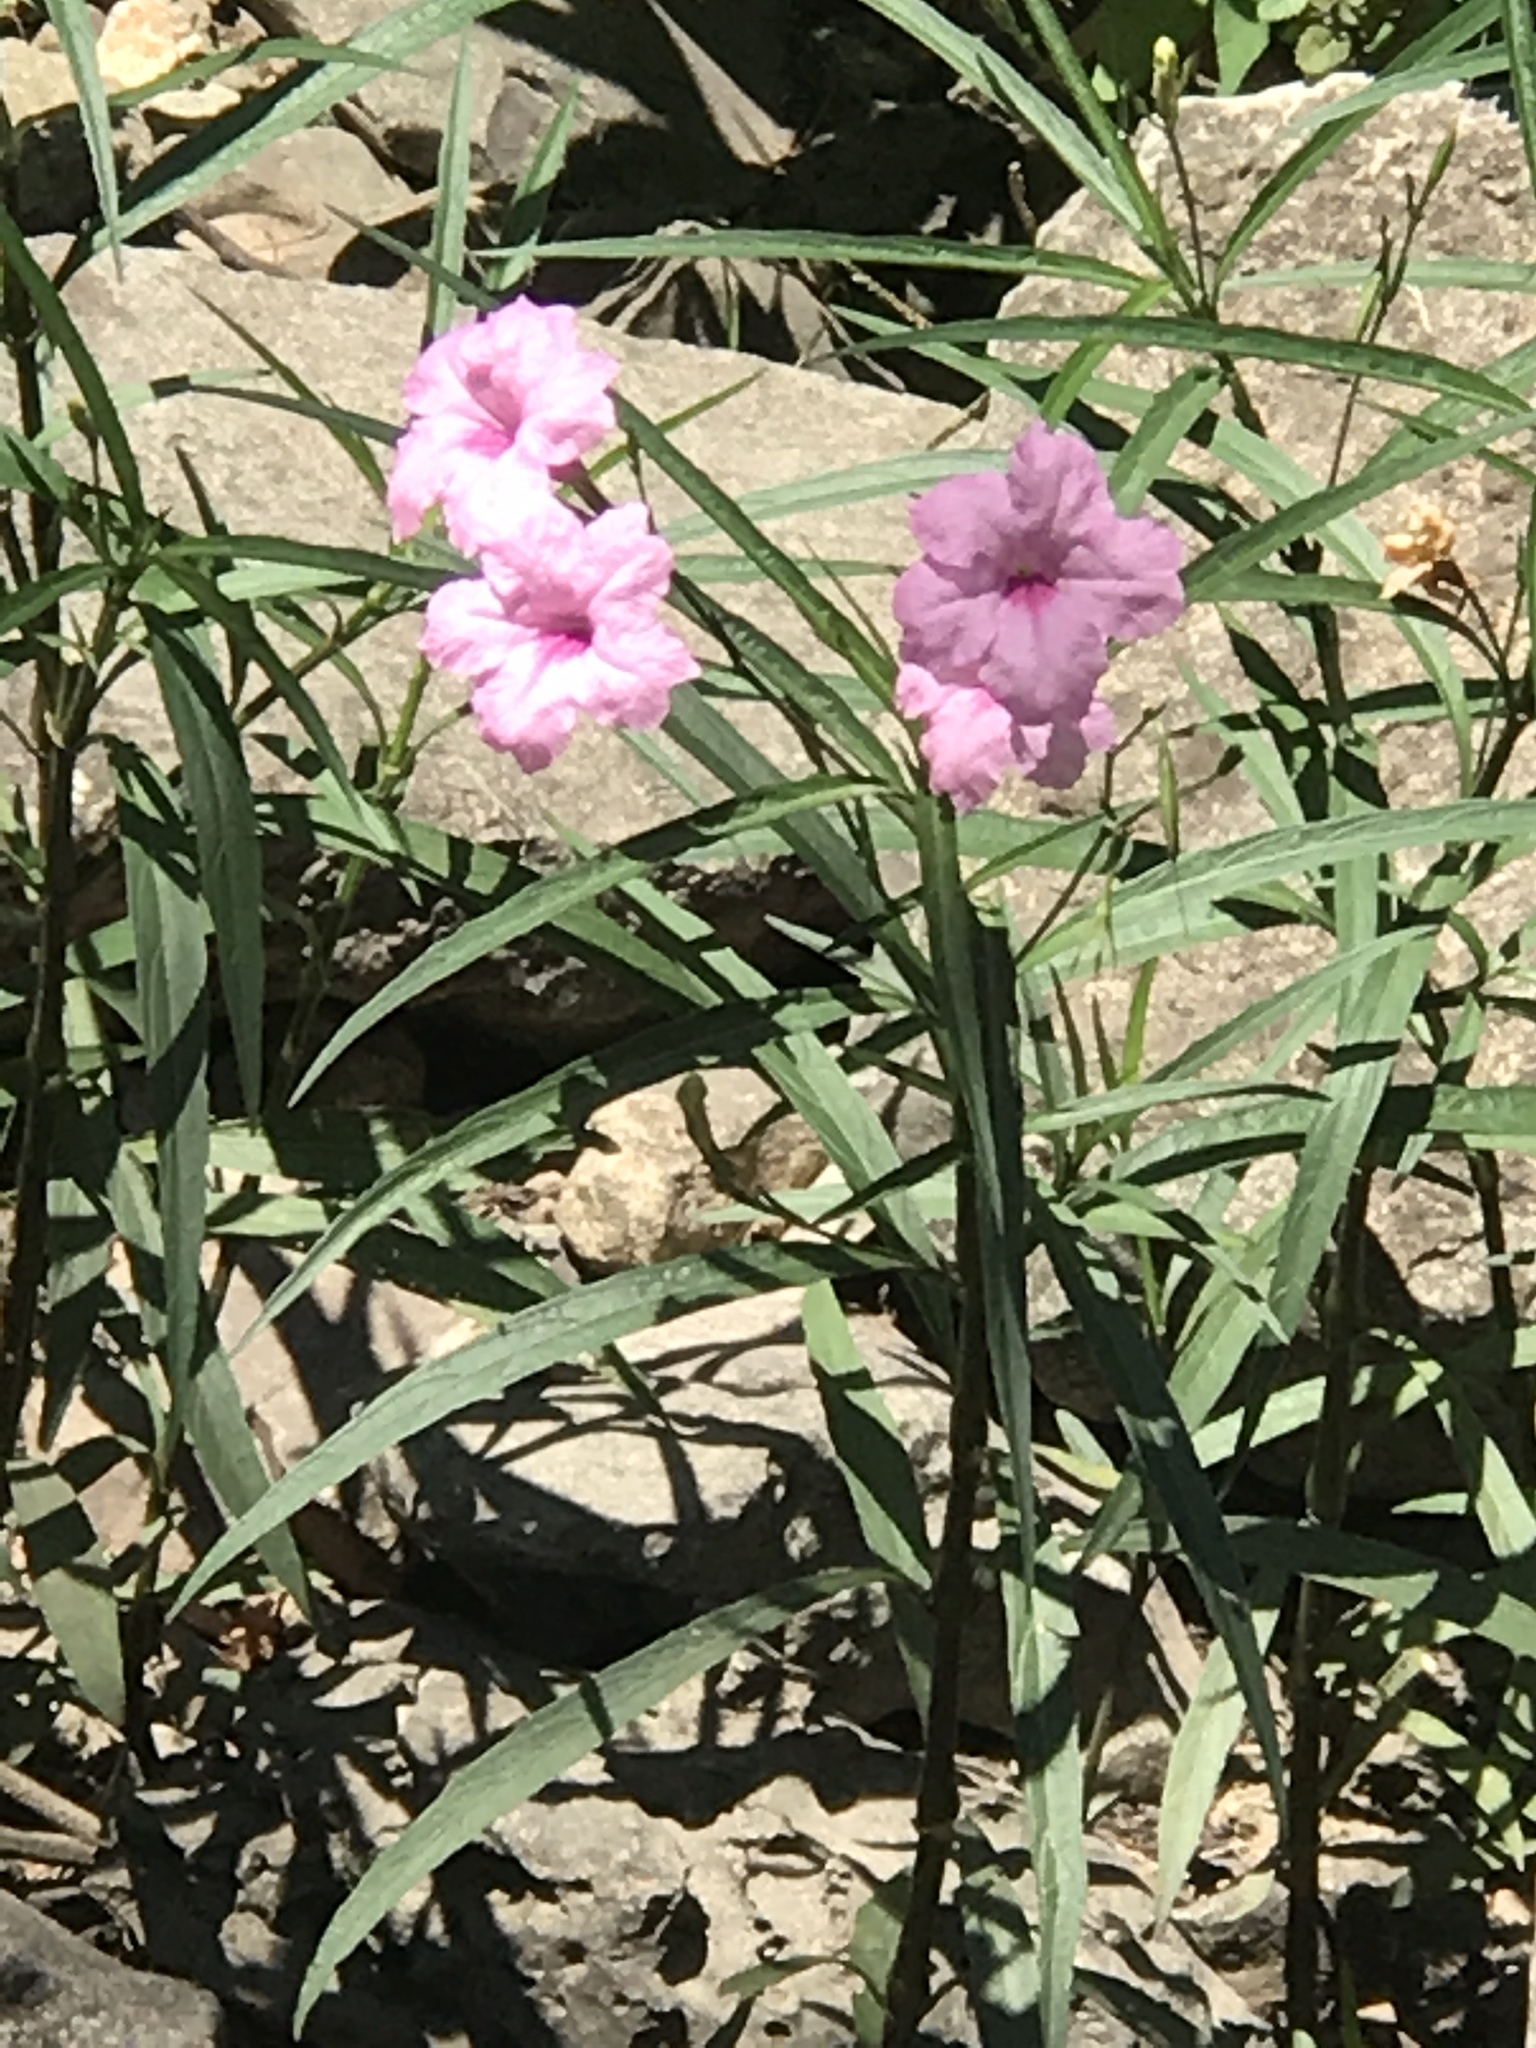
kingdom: Plantae
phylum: Tracheophyta
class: Magnoliopsida
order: Lamiales
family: Acanthaceae
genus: Ruellia
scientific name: Ruellia simplex
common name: Softseed wild petunia
